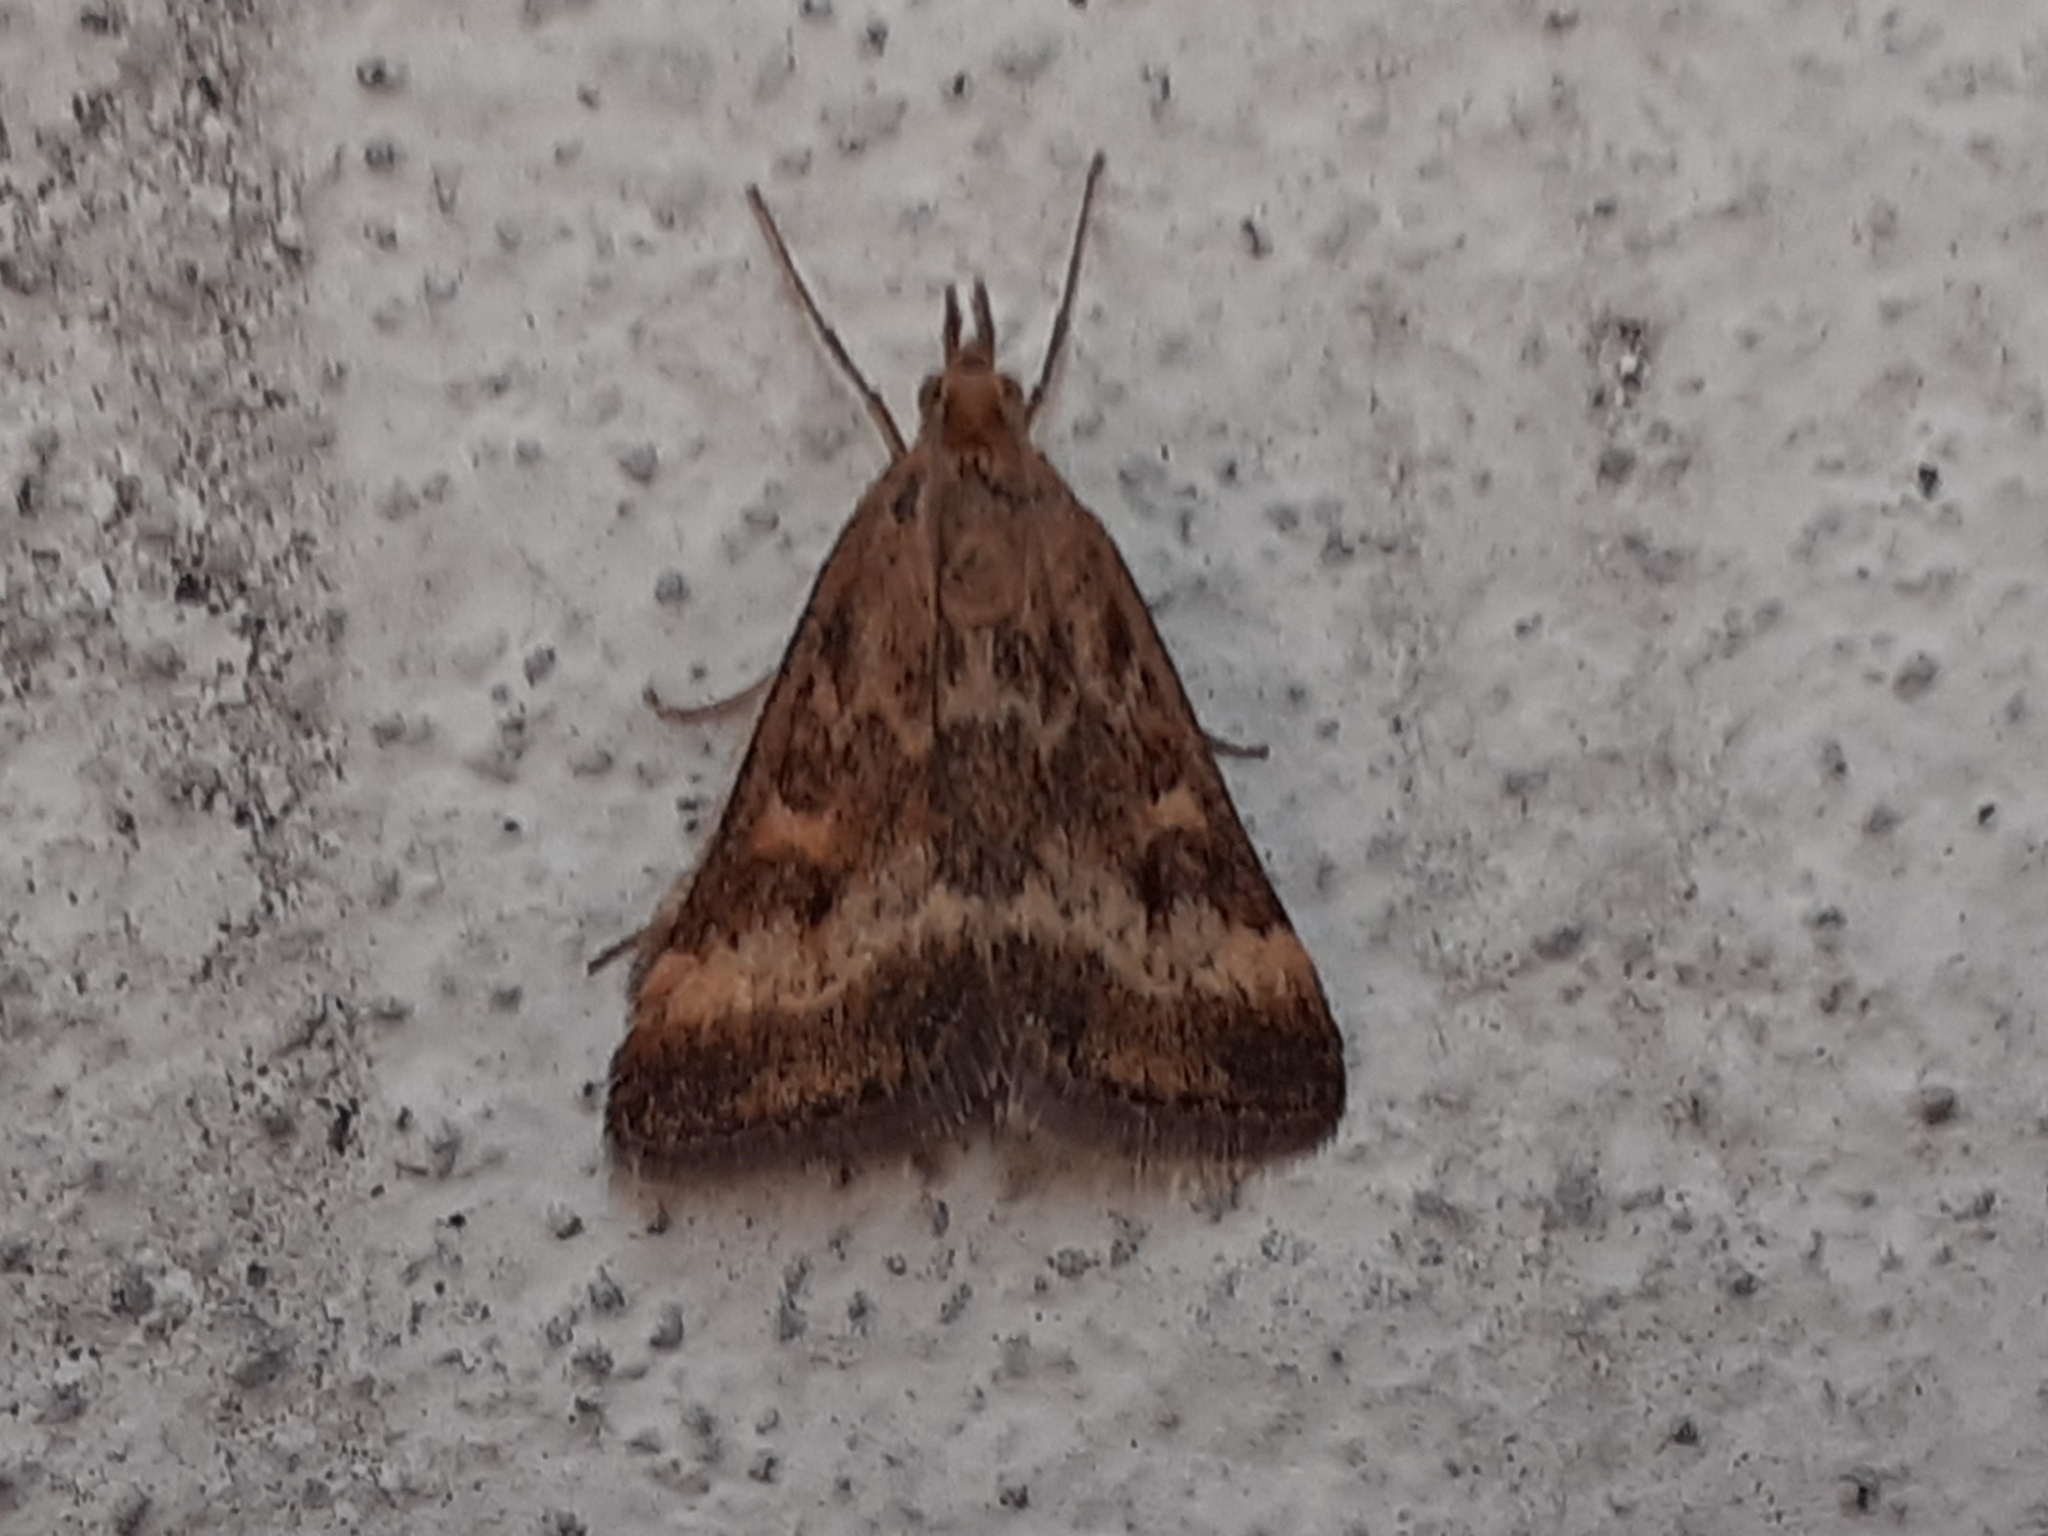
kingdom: Animalia
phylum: Arthropoda
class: Insecta
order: Lepidoptera
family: Crambidae
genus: Pyrausta
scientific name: Pyrausta despicata
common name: Straw-barred pearl
